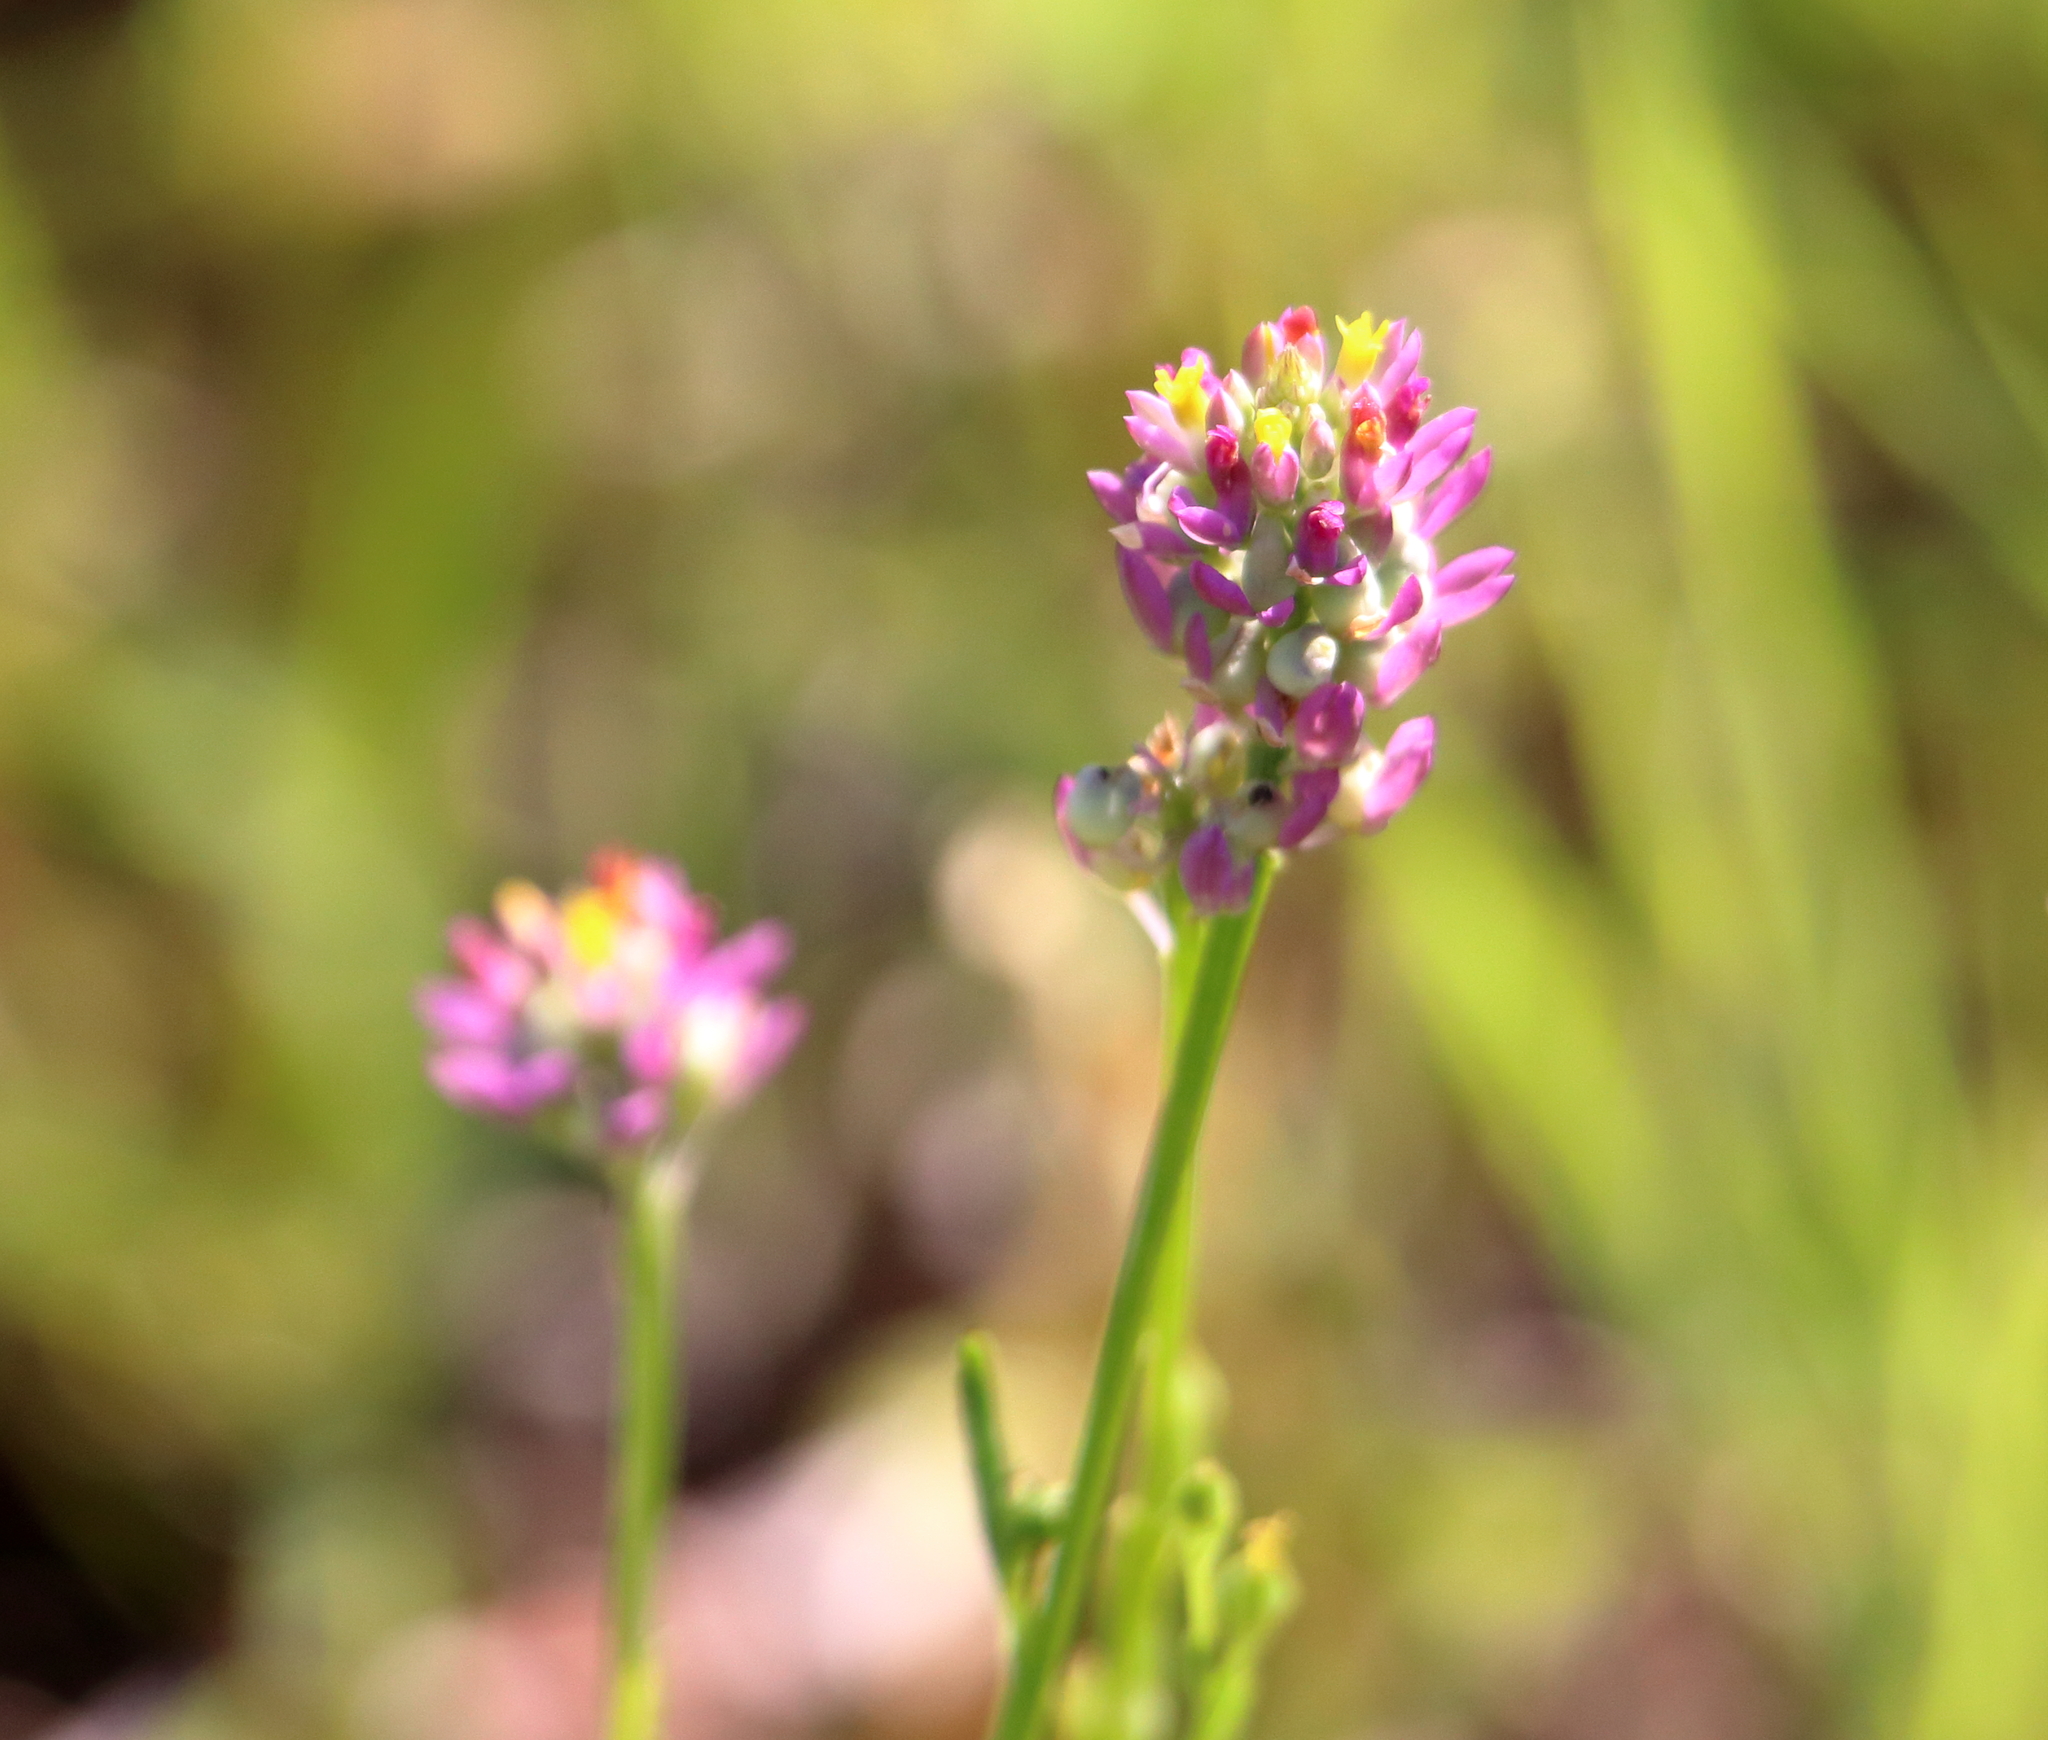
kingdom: Plantae
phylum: Tracheophyta
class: Magnoliopsida
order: Fabales
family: Polygalaceae
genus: Polygala
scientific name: Polygala mariana
